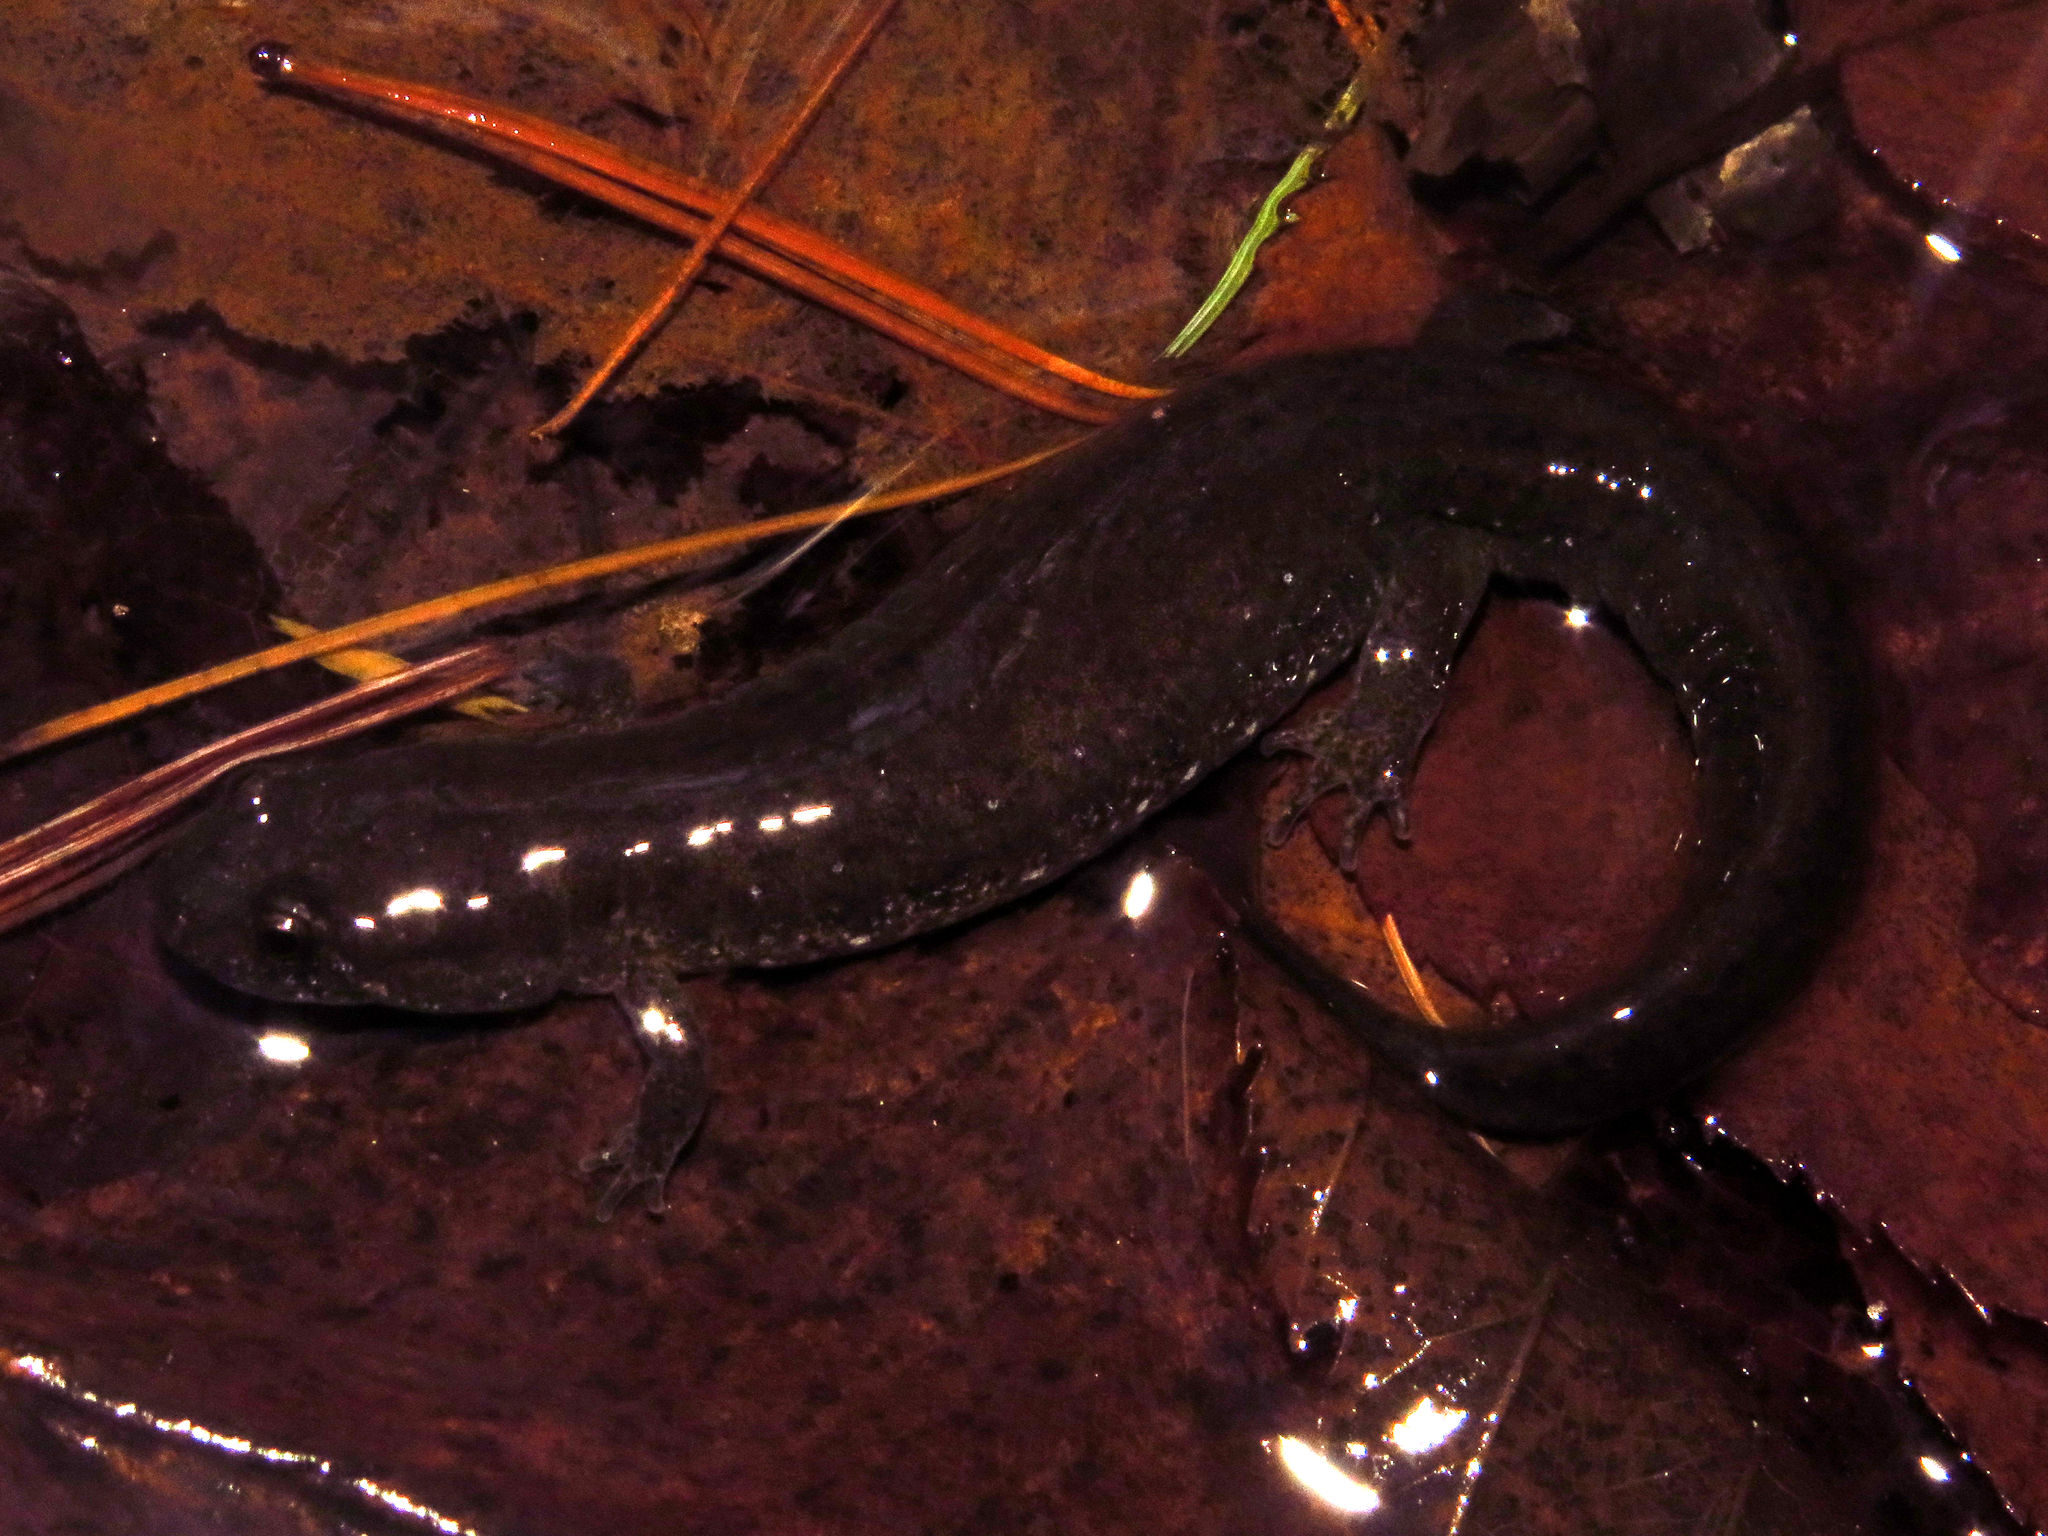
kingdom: Animalia
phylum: Chordata
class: Amphibia
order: Caudata
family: Plethodontidae
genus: Desmognathus
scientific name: Desmognathus fuscus
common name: Northern dusky salamander
